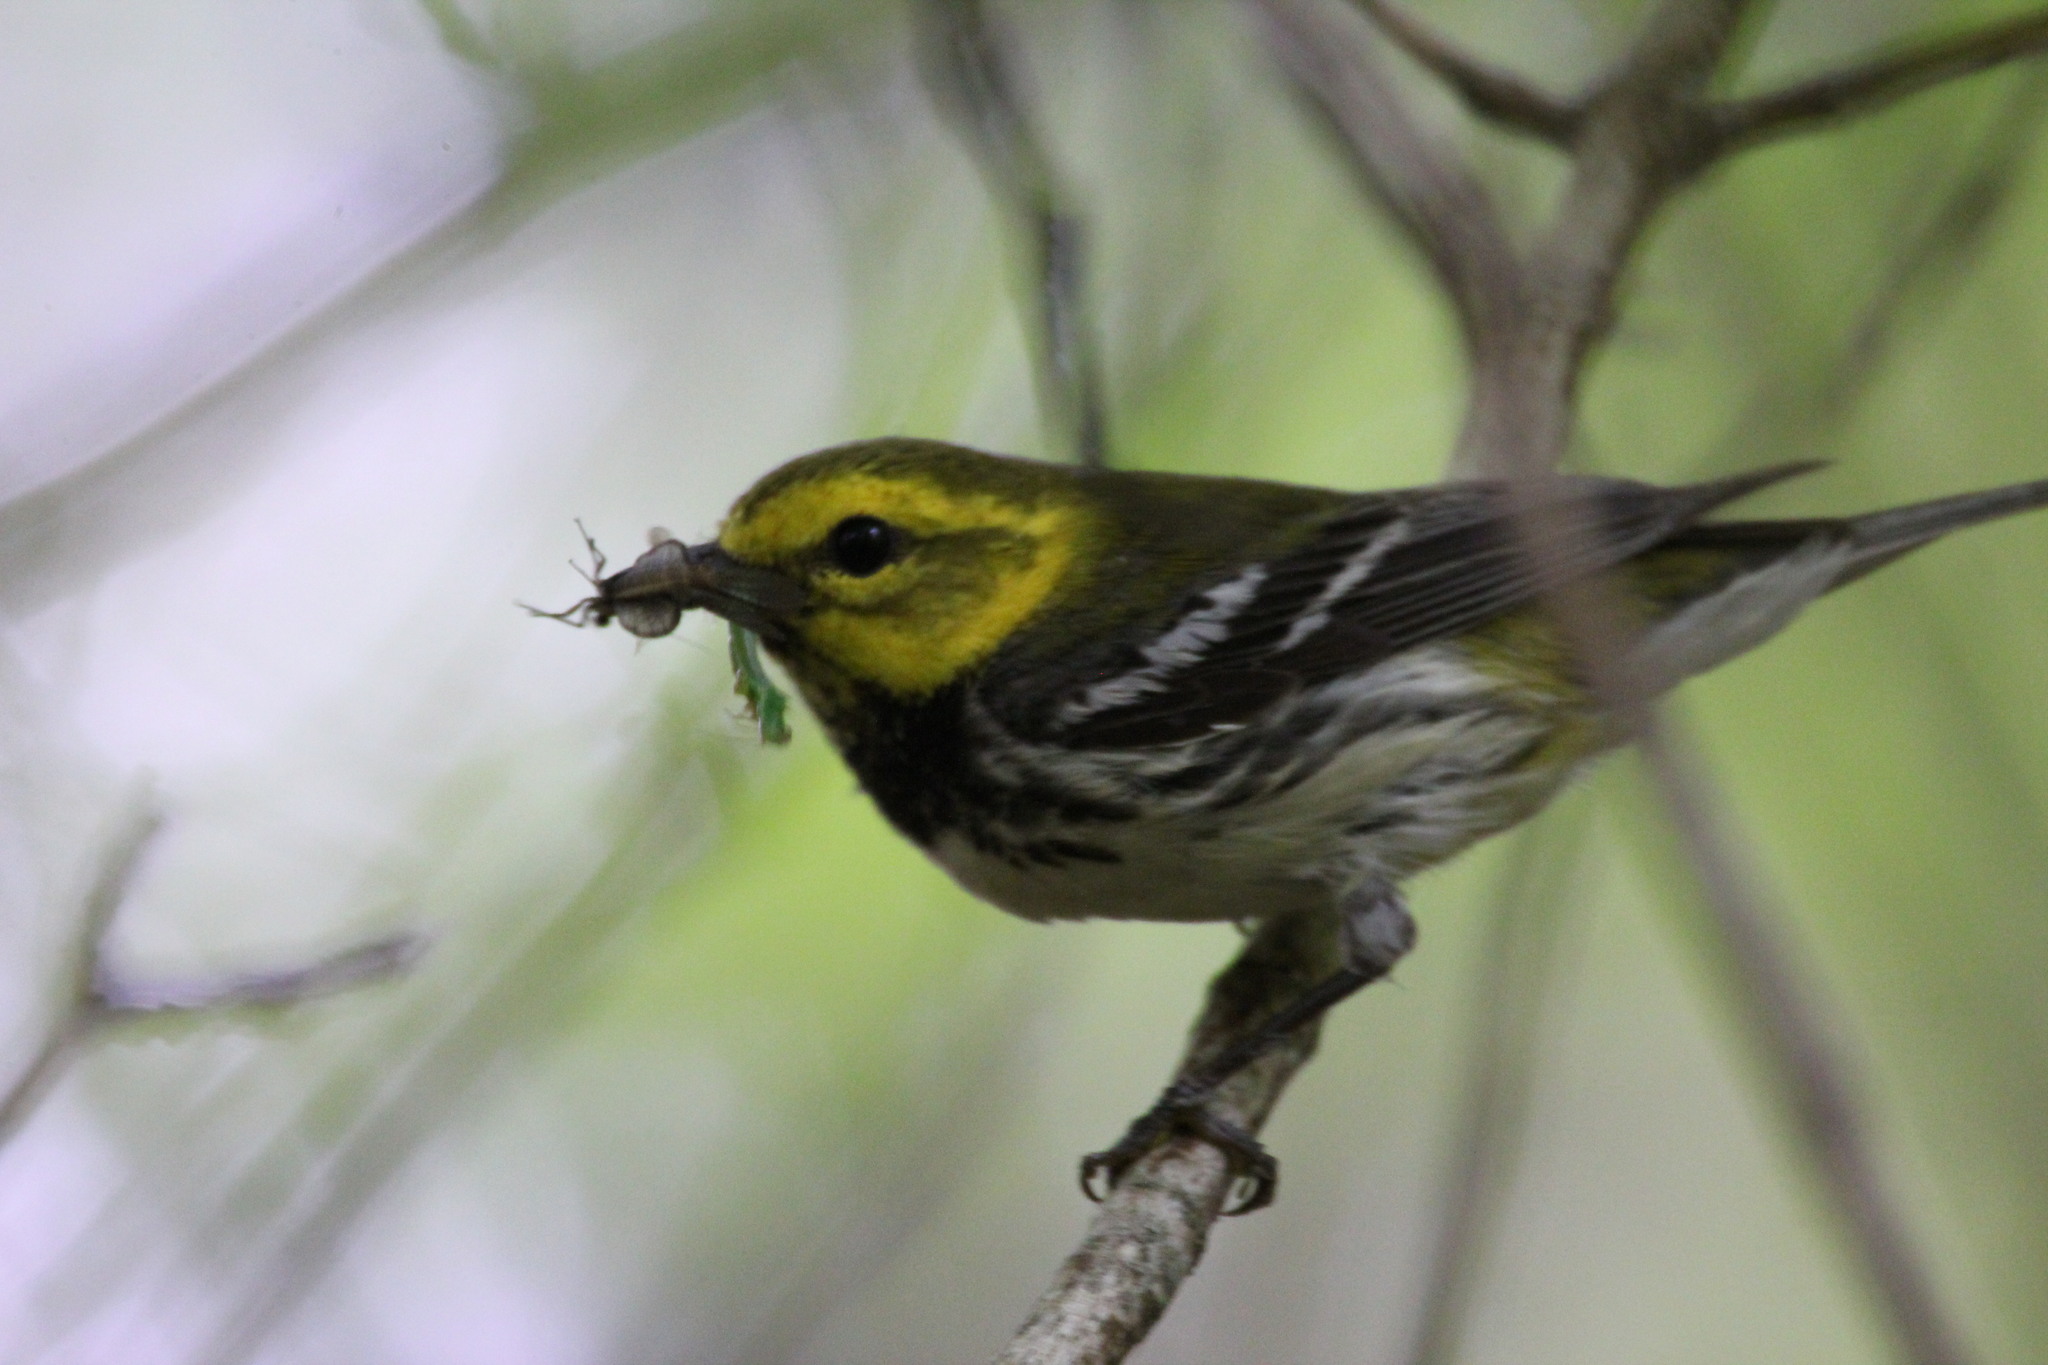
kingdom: Animalia
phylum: Chordata
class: Aves
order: Passeriformes
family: Parulidae
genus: Setophaga
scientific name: Setophaga virens
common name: Black-throated green warbler
